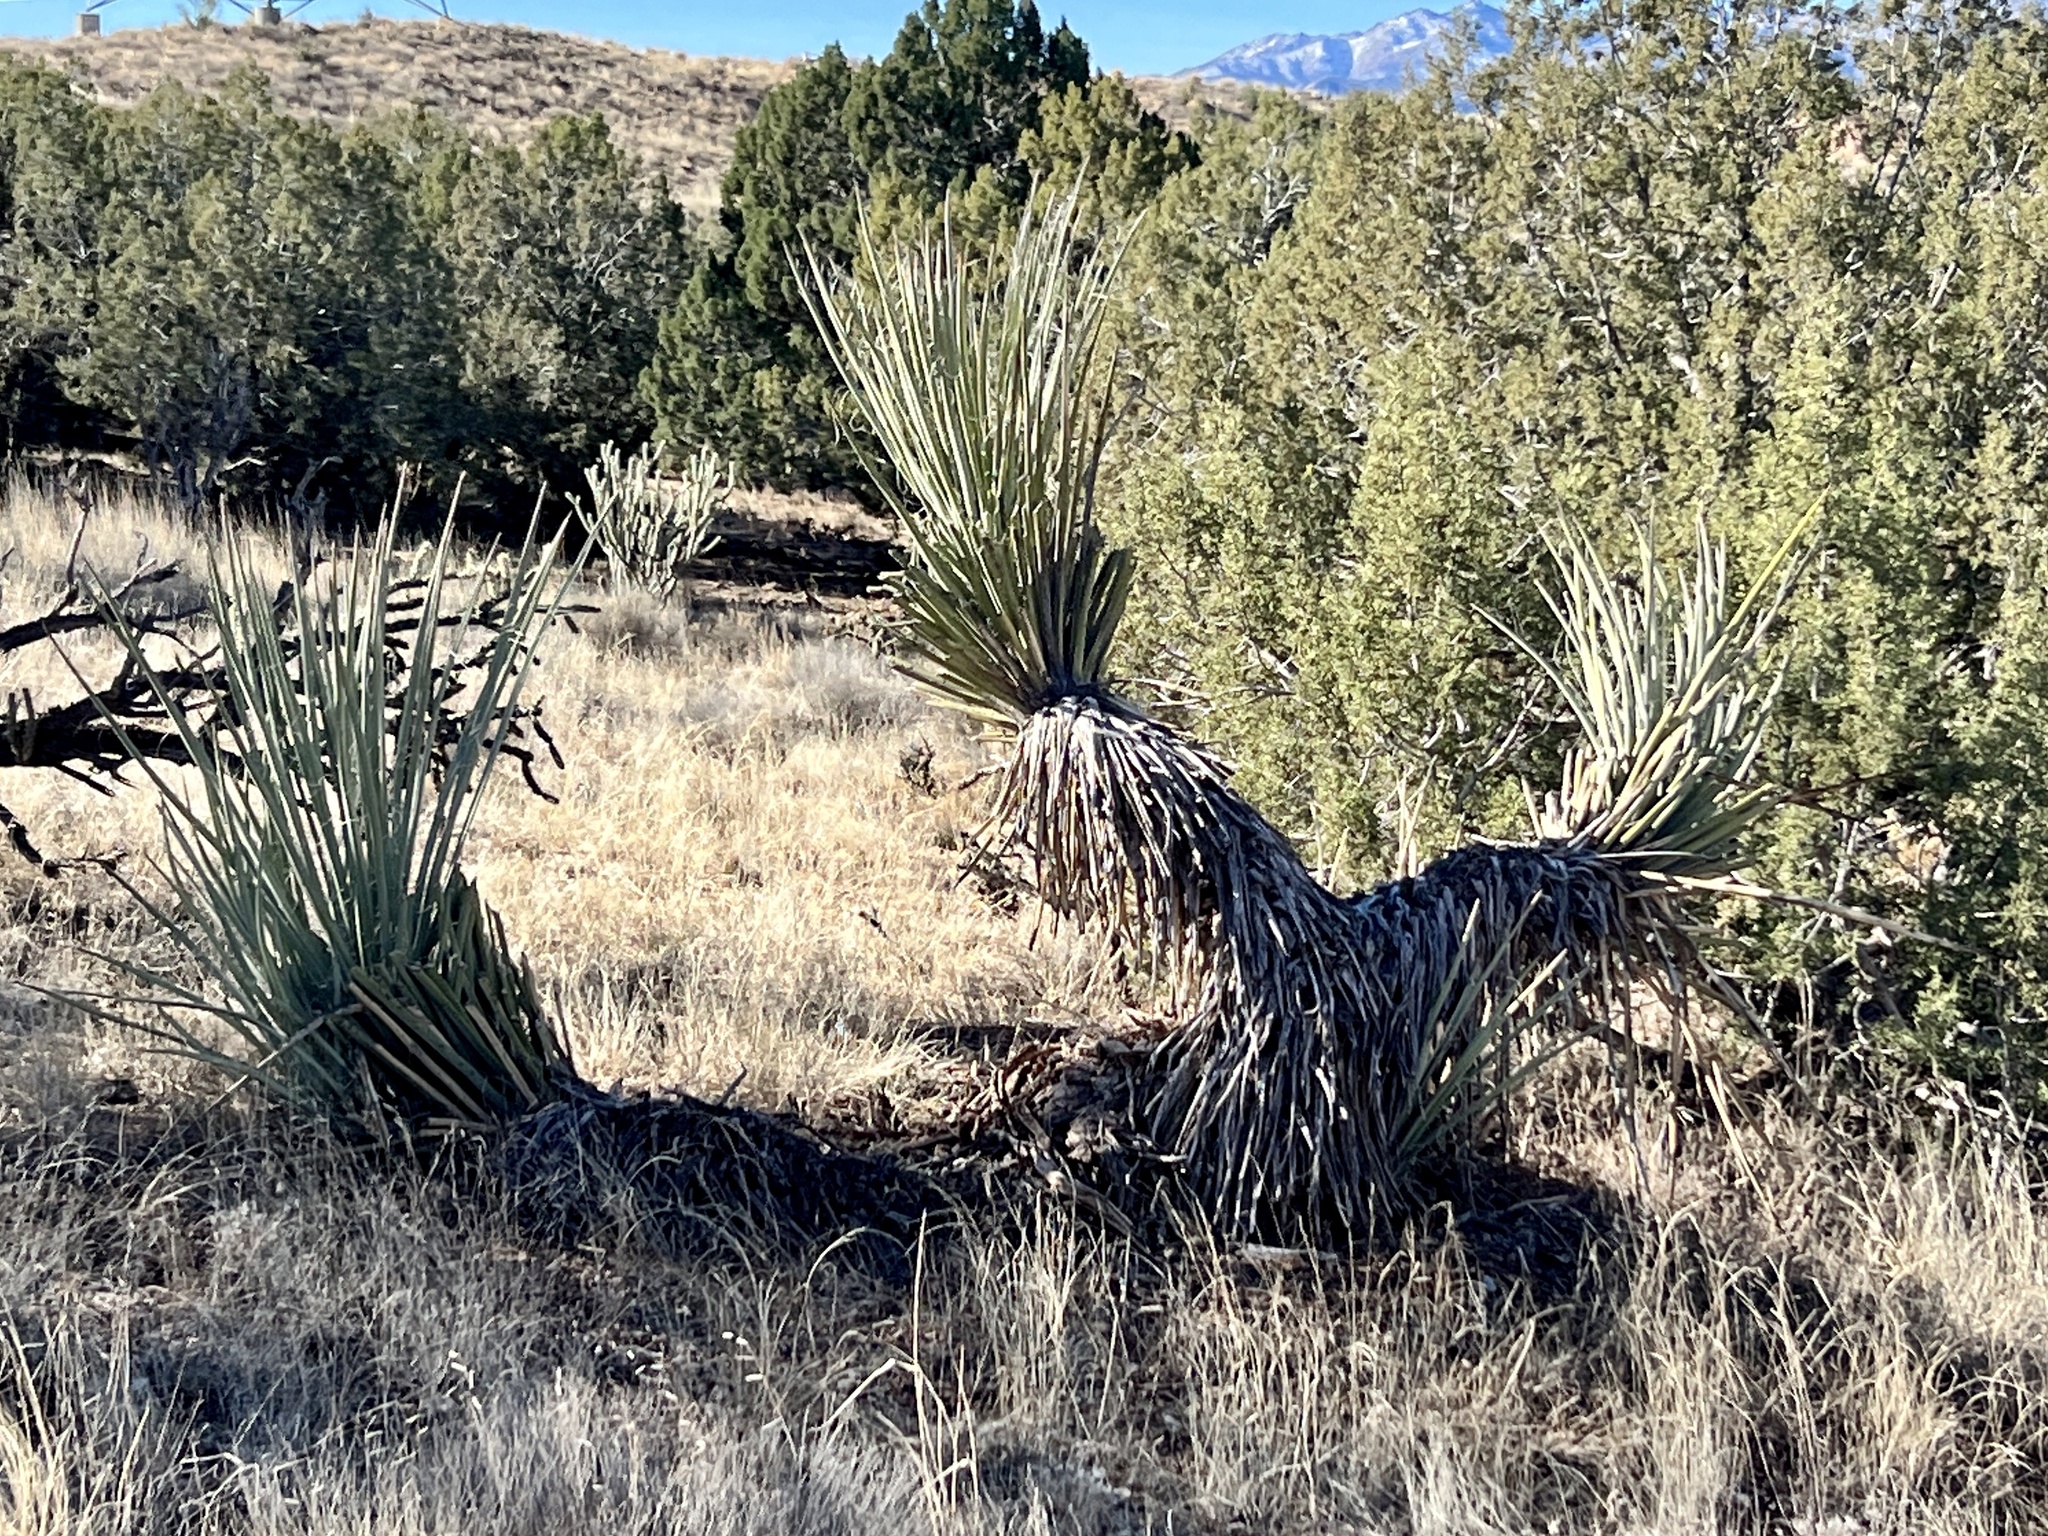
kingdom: Plantae
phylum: Tracheophyta
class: Liliopsida
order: Asparagales
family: Asparagaceae
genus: Yucca
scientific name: Yucca baccata
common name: Banana yucca
